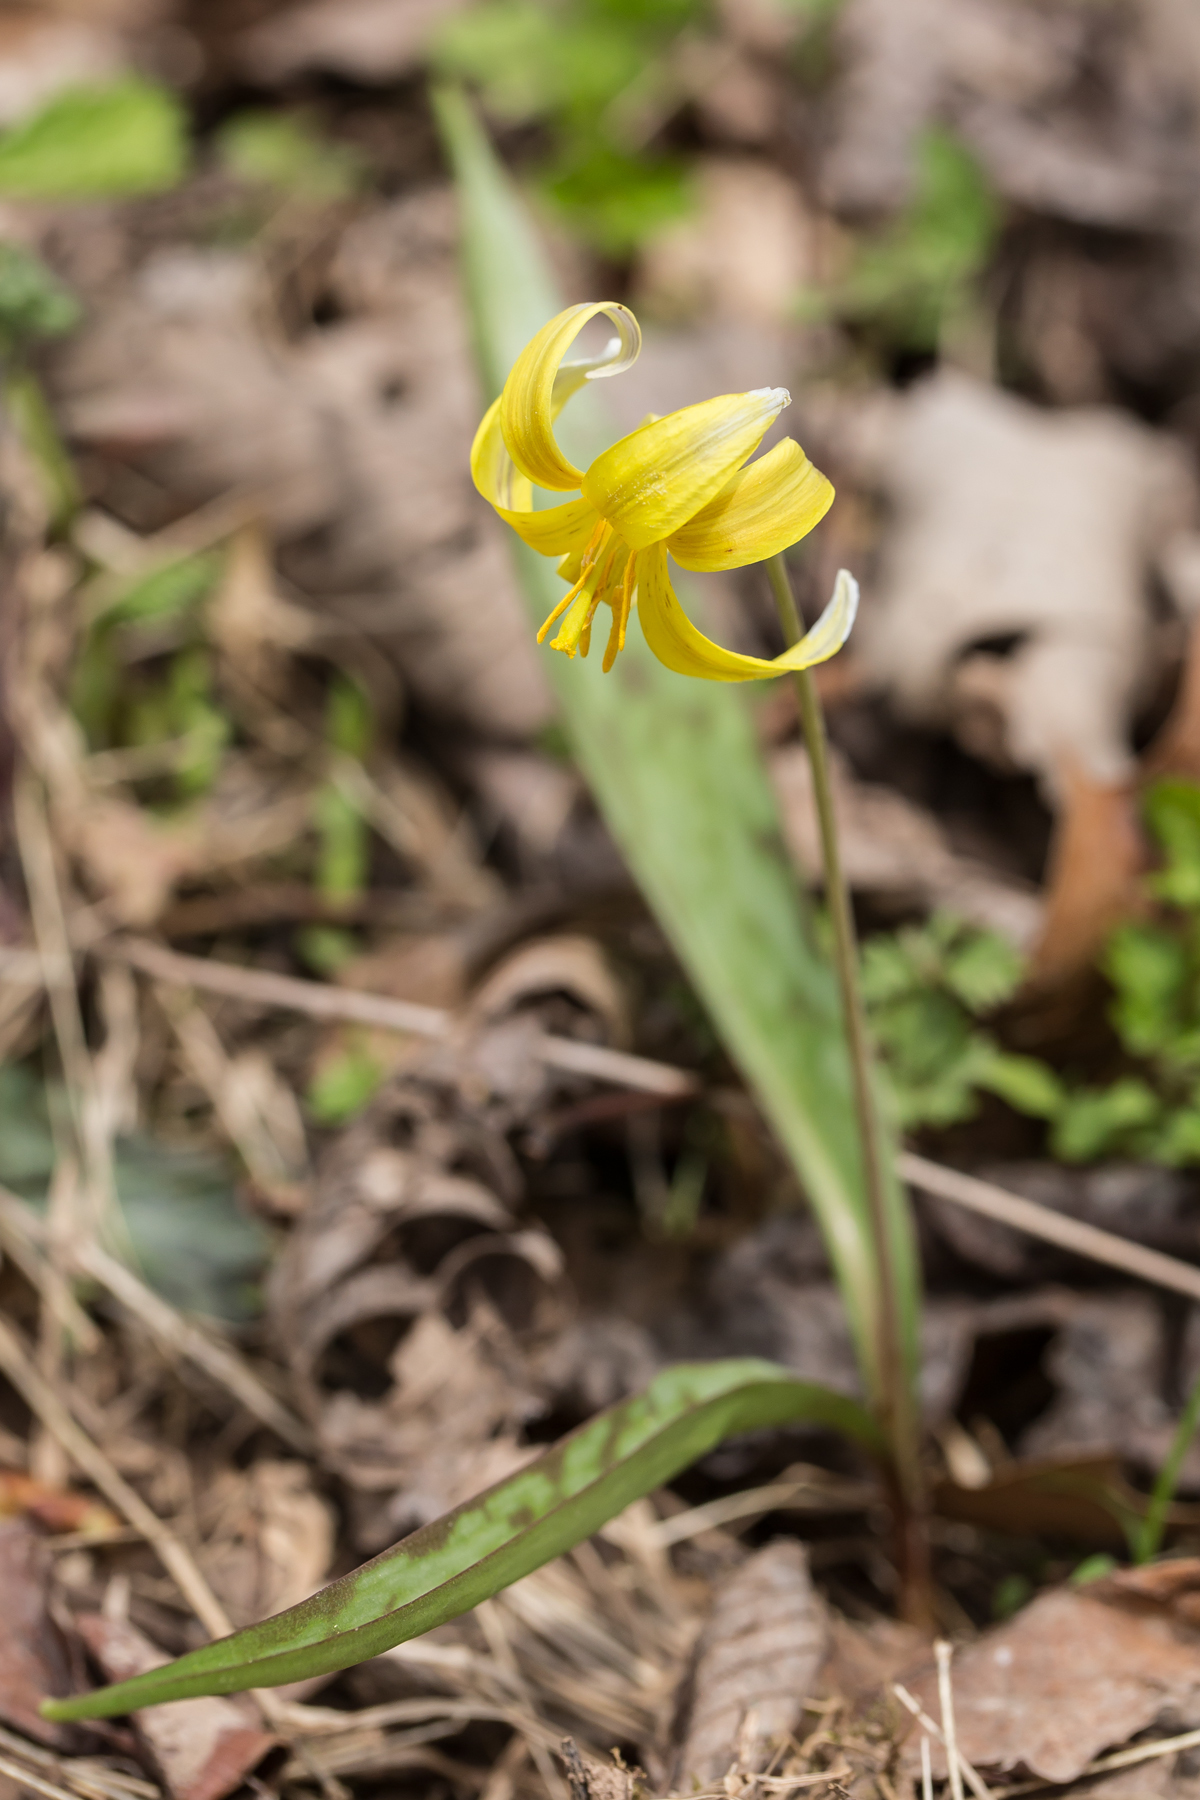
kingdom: Plantae
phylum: Tracheophyta
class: Liliopsida
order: Liliales
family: Liliaceae
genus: Erythronium
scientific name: Erythronium americanum
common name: Yellow adder's-tongue
